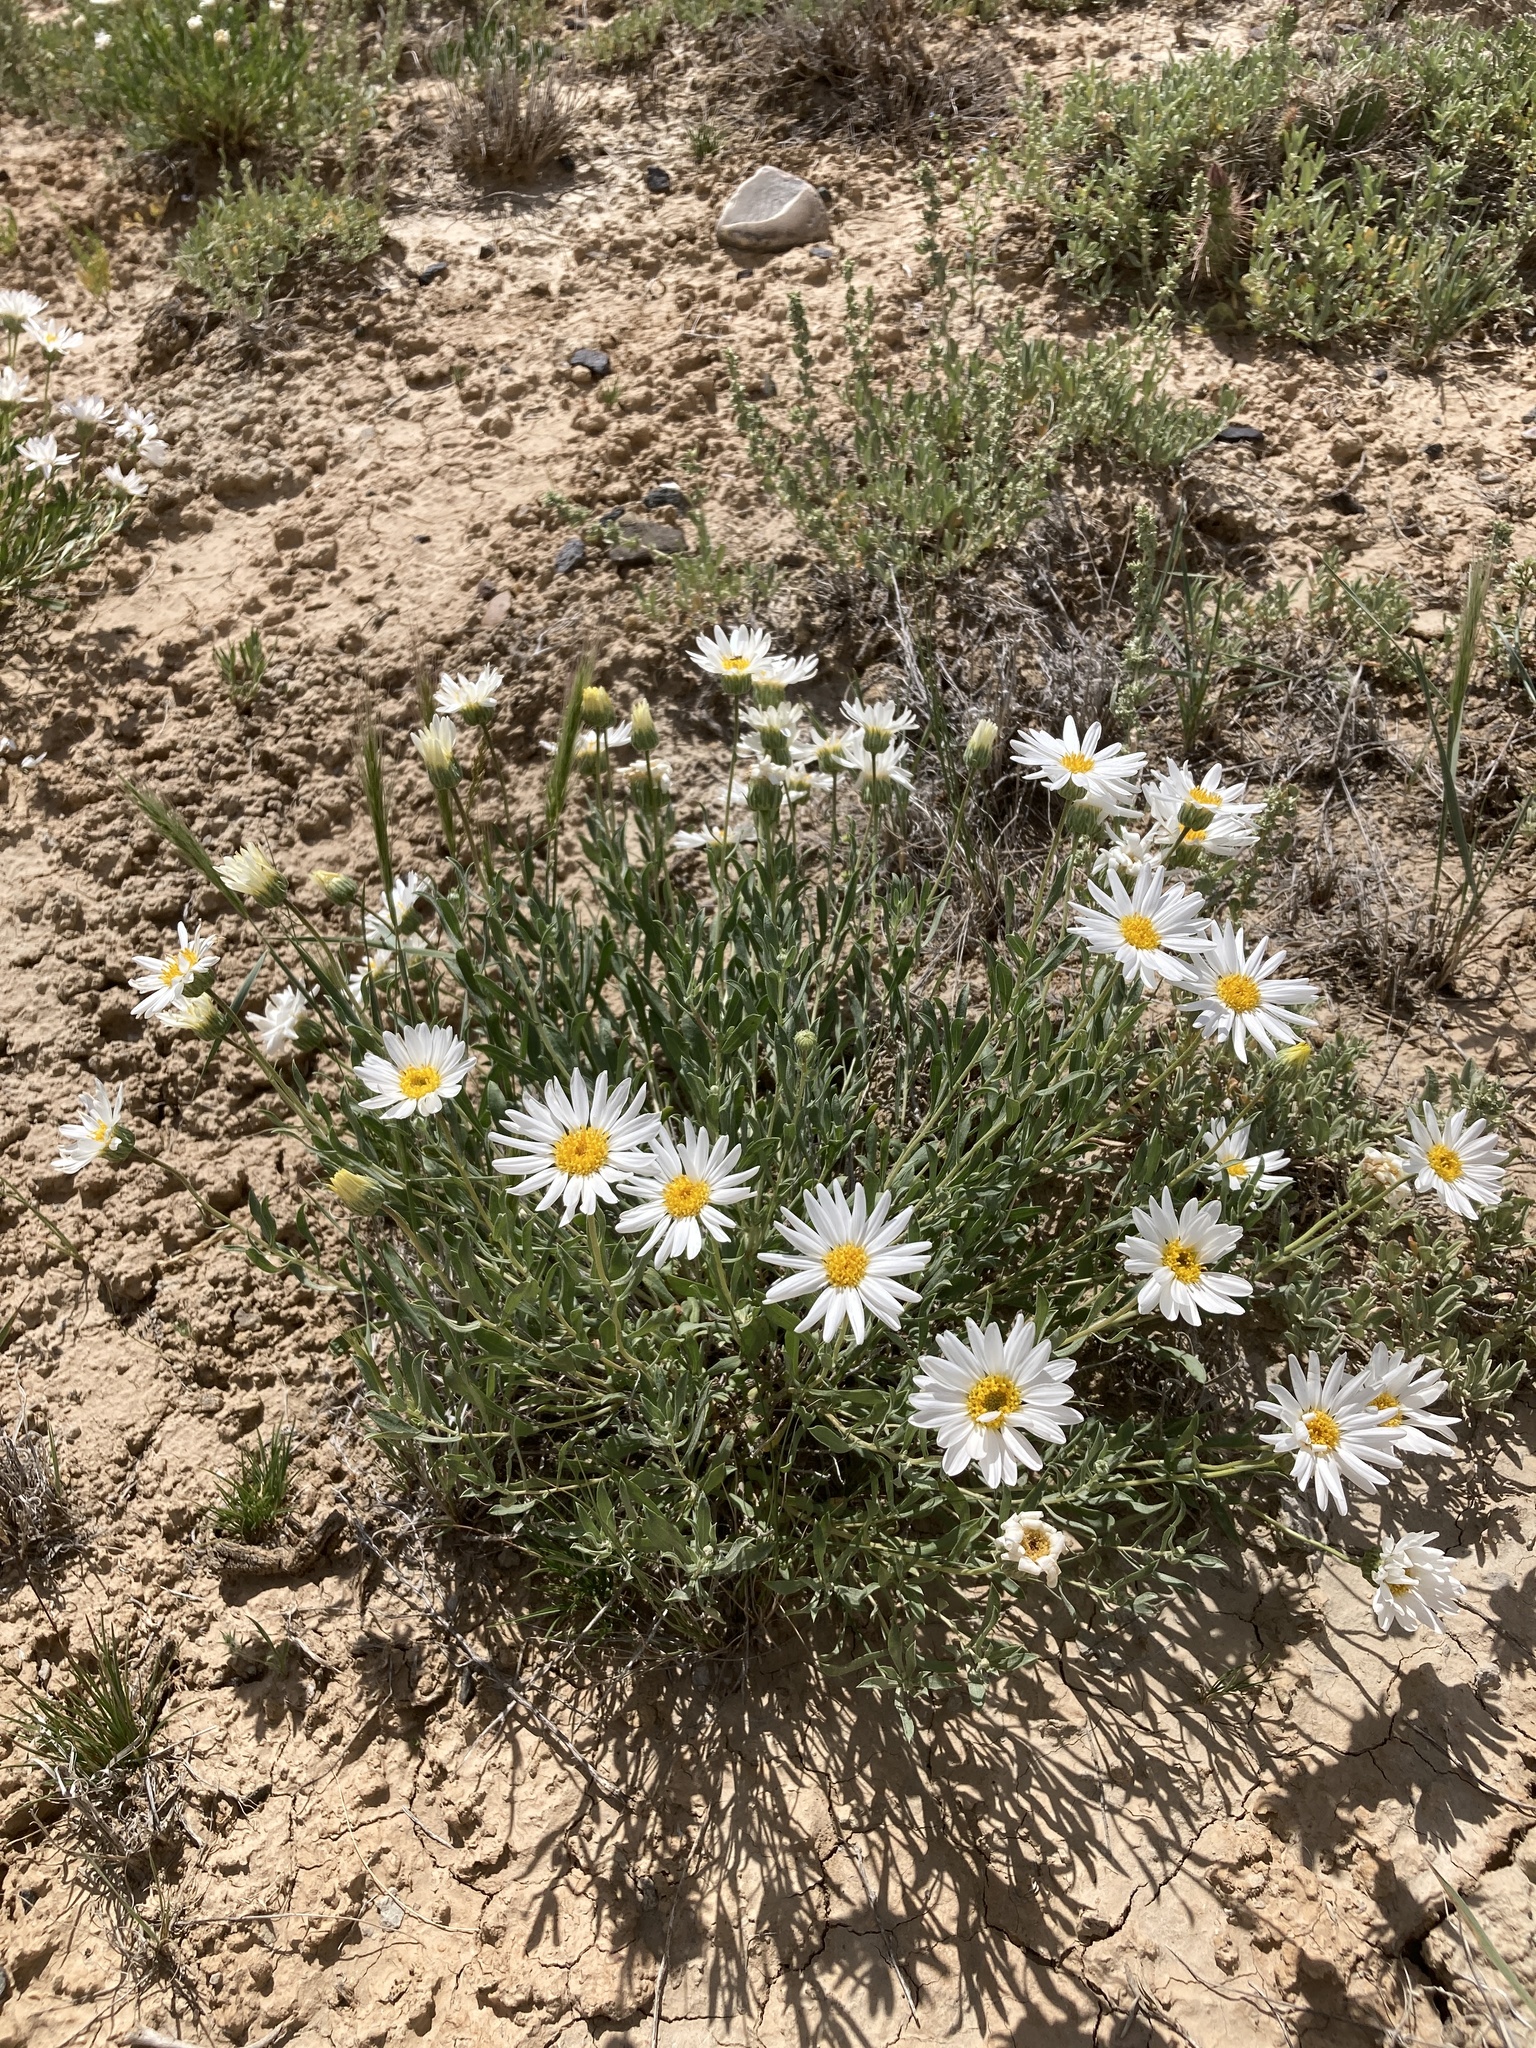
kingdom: Plantae
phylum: Tracheophyta
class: Magnoliopsida
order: Asterales
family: Asteraceae
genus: Xylorhiza
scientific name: Xylorhiza glabriuscula
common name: Smooth woody-aster
